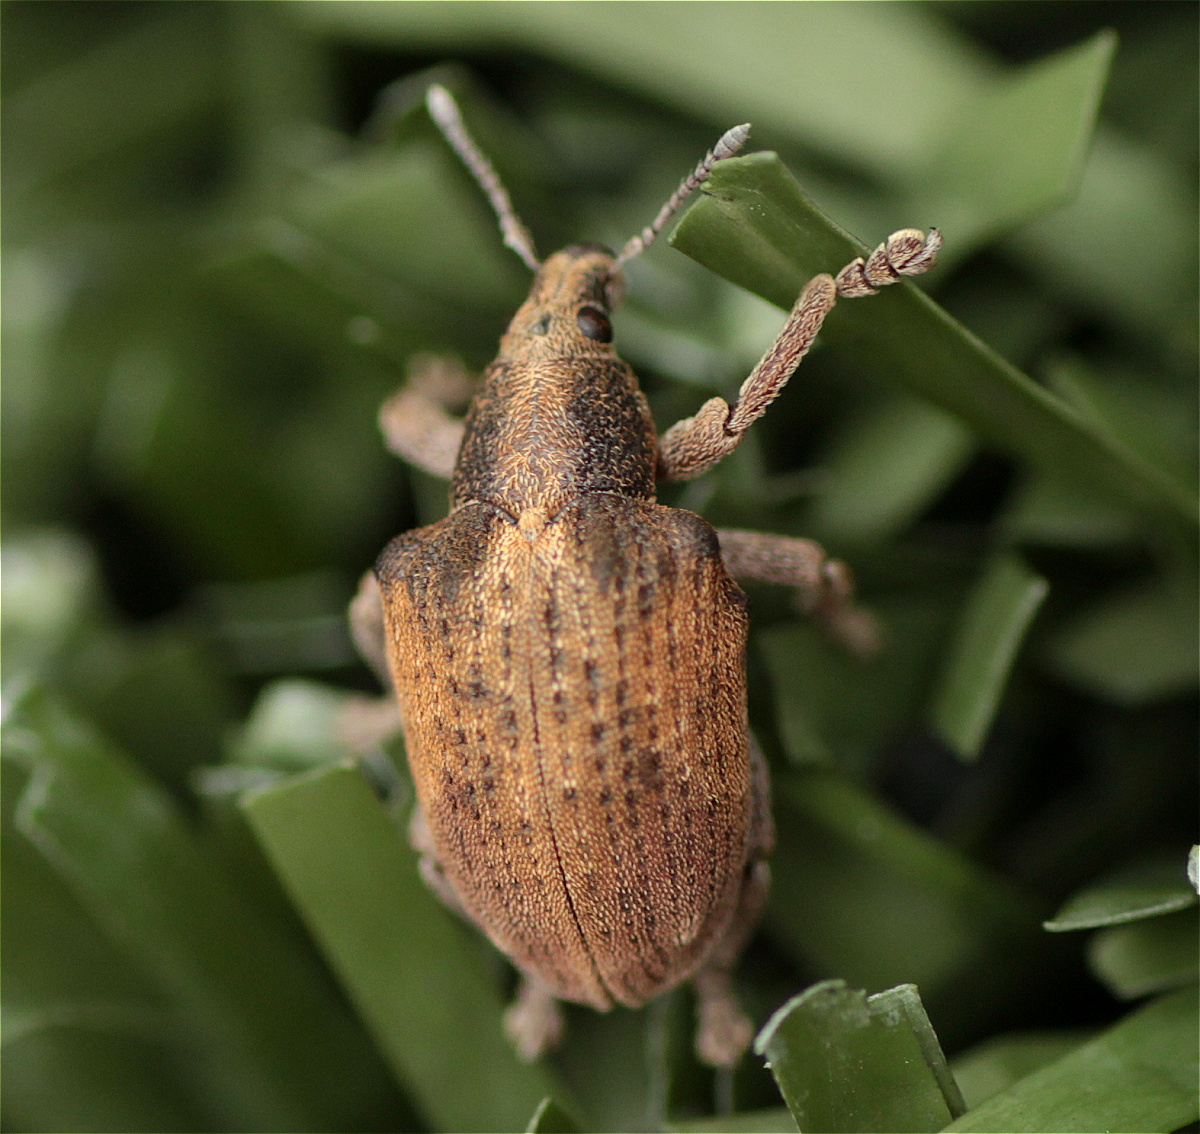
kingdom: Animalia
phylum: Arthropoda
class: Insecta
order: Coleoptera
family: Curculionidae
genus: Gonipterus
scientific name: Gonipterus platensis
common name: Eucalyptus snout beetle
